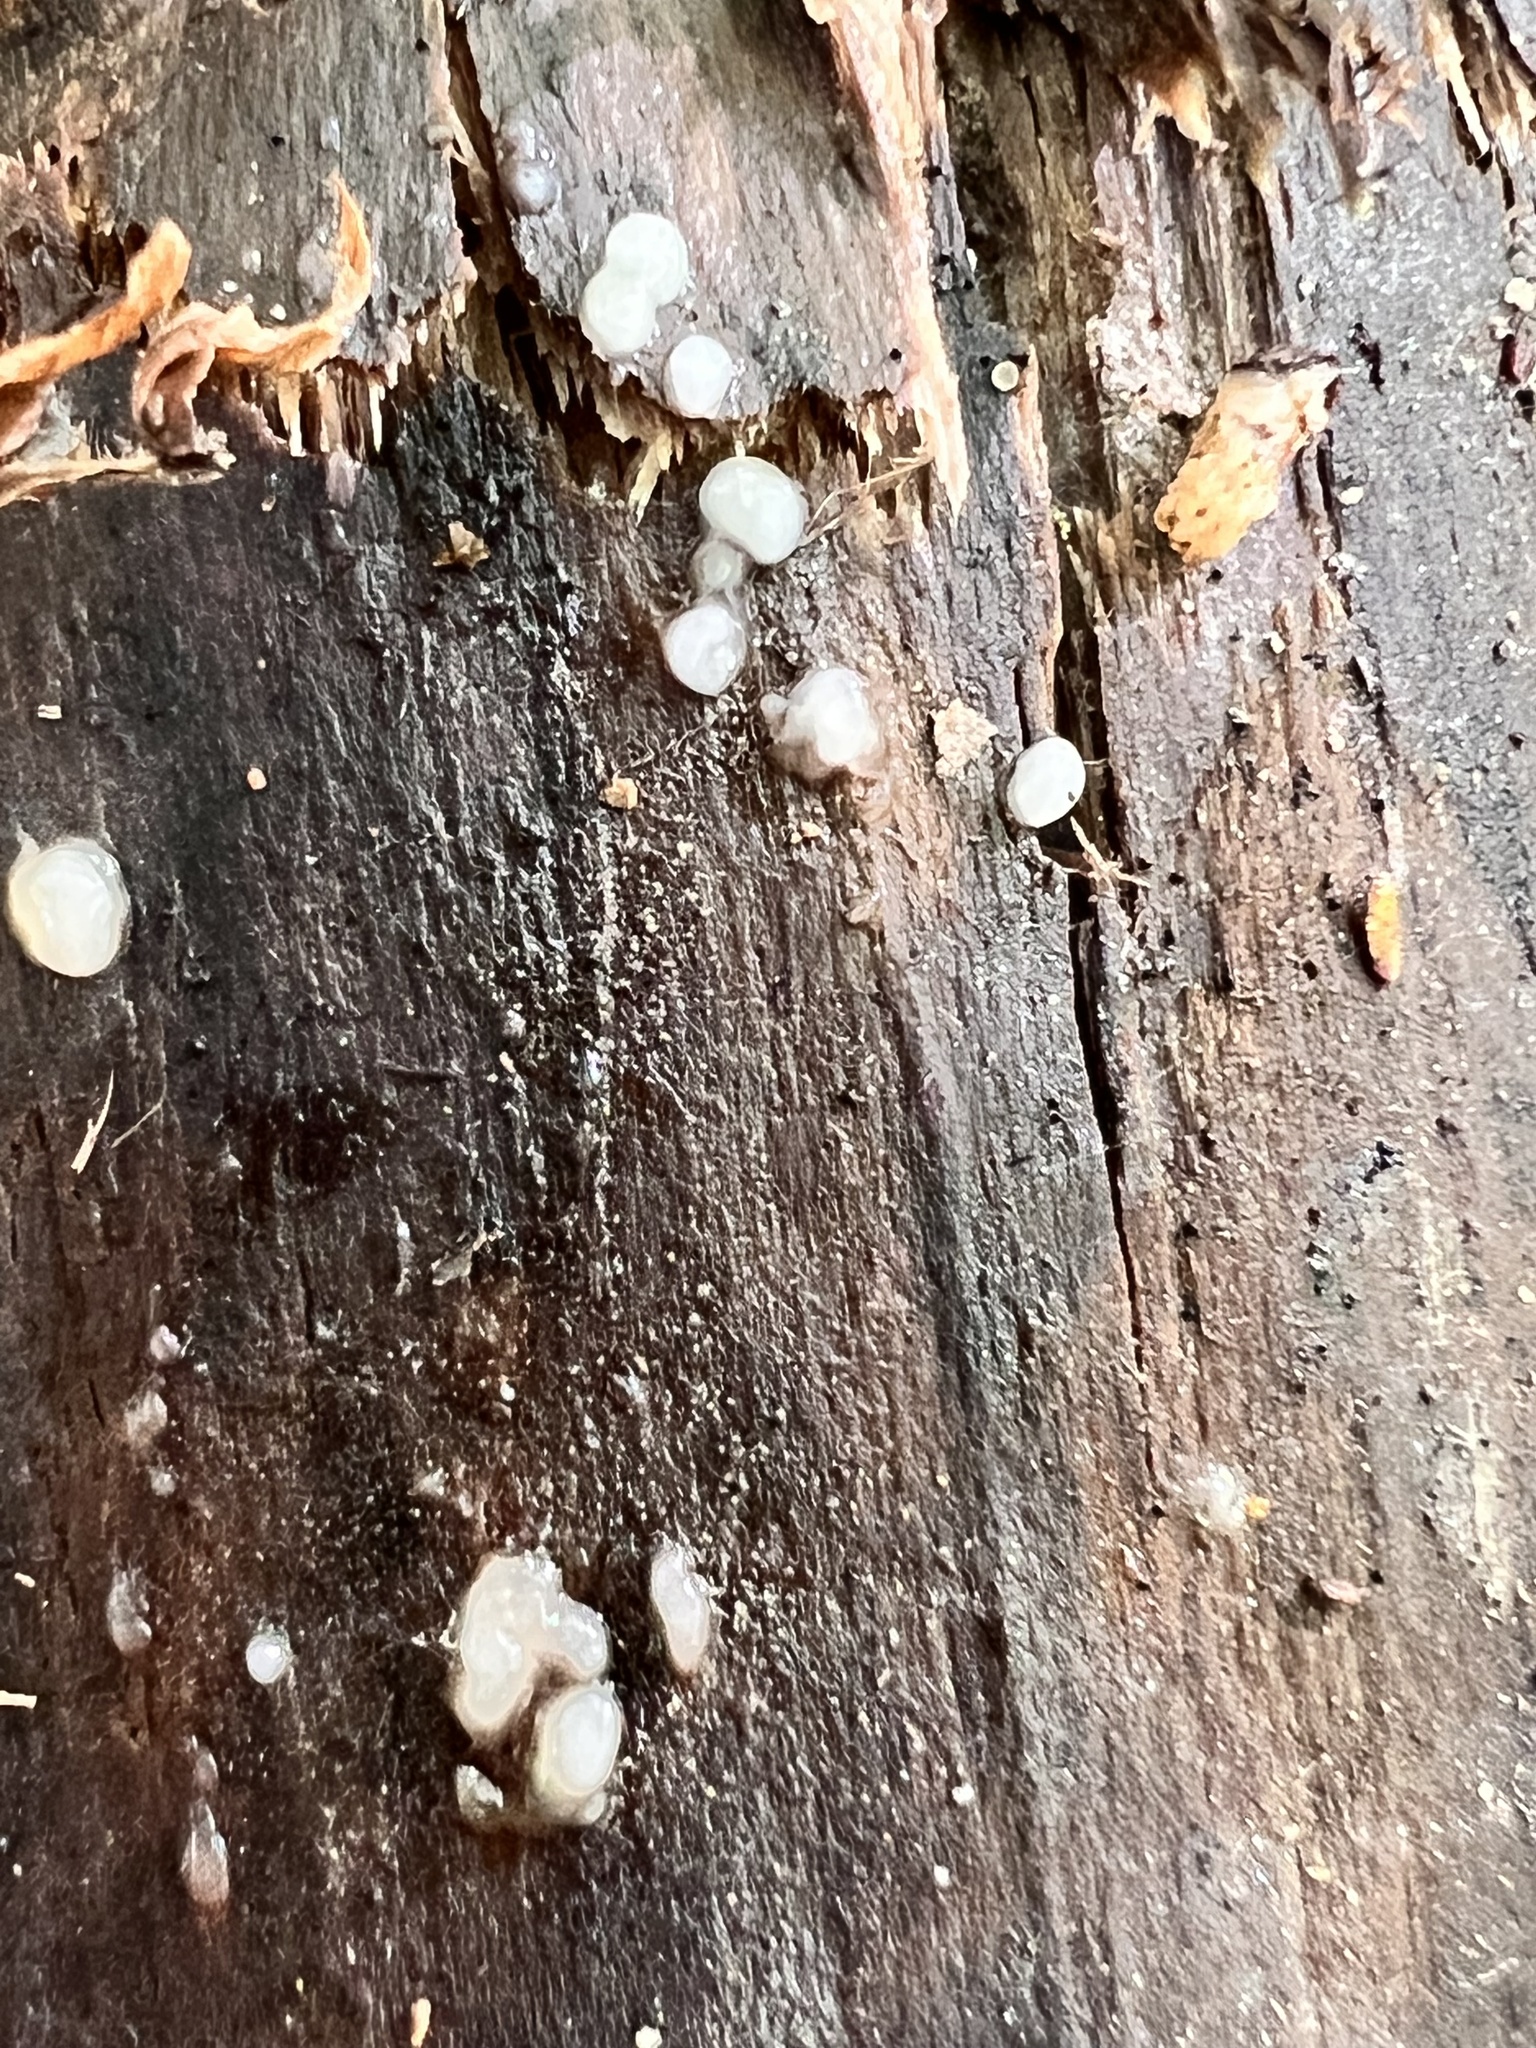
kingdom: Fungi
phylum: Basidiomycota
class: Atractiellomycetes
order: Atractiellales
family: Phleogenaceae
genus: Helicogloea
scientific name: Helicogloea compressa
